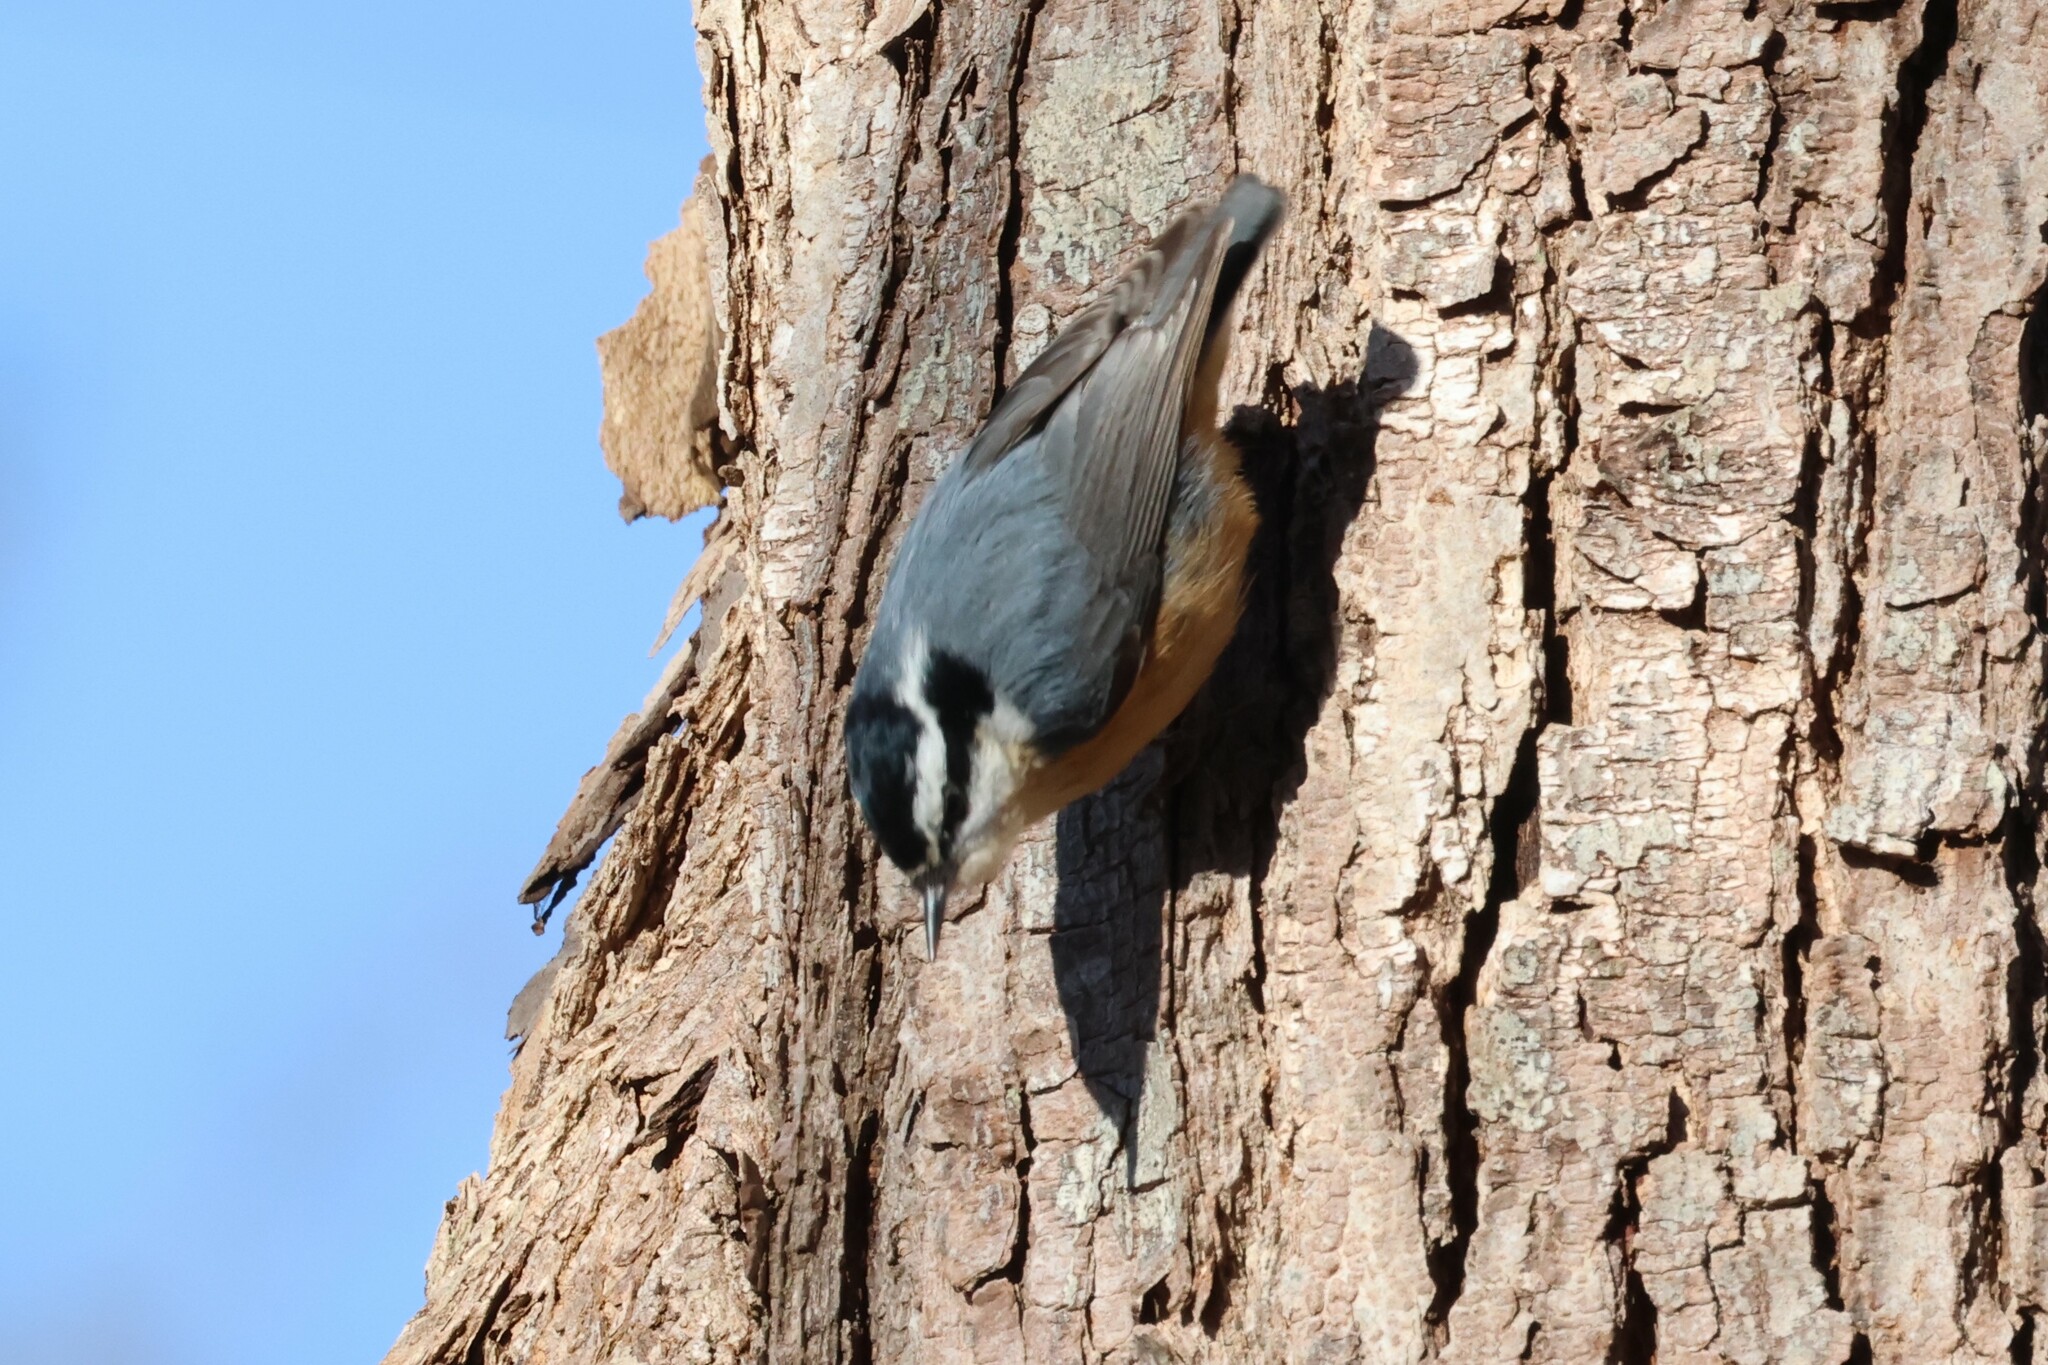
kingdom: Animalia
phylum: Chordata
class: Aves
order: Passeriformes
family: Sittidae
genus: Sitta
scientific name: Sitta canadensis
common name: Red-breasted nuthatch
